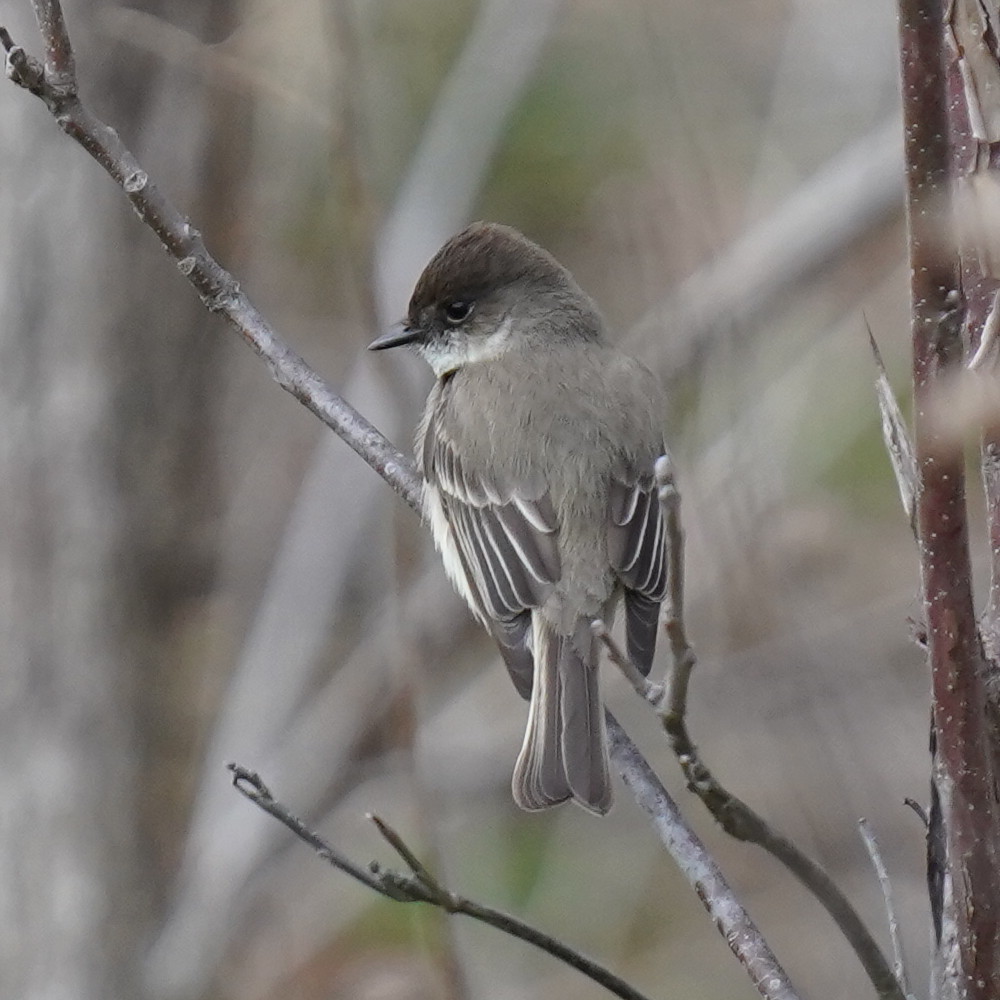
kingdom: Animalia
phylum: Chordata
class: Aves
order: Passeriformes
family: Tyrannidae
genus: Sayornis
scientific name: Sayornis phoebe
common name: Eastern phoebe
